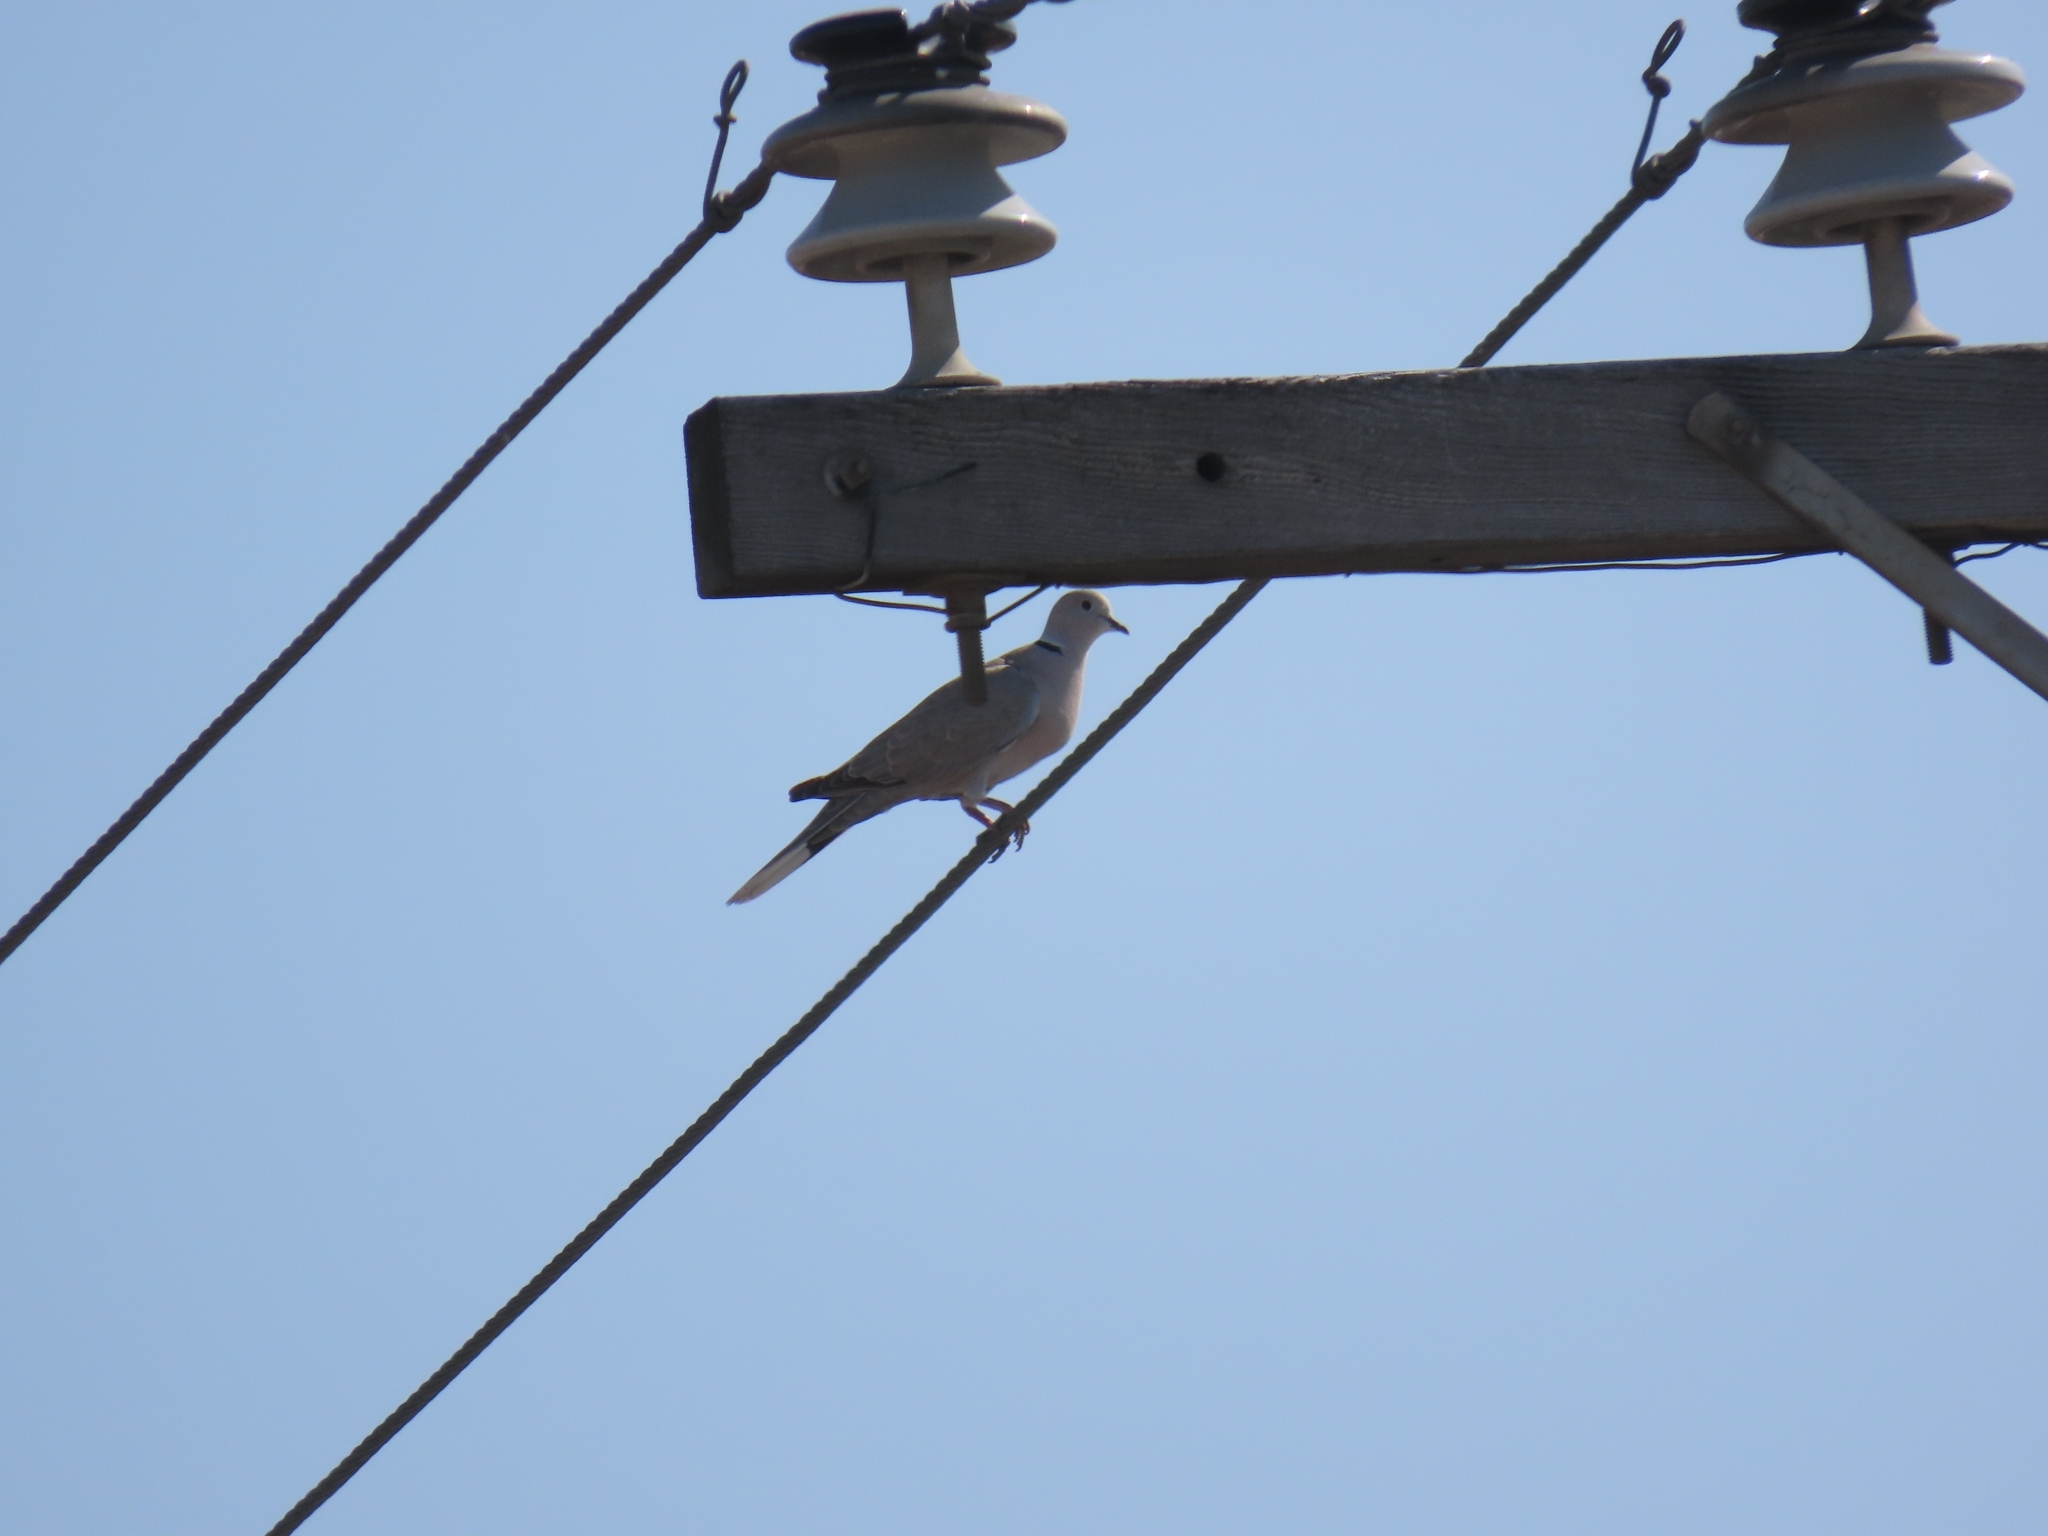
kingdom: Animalia
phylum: Chordata
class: Aves
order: Columbiformes
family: Columbidae
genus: Streptopelia
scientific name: Streptopelia decaocto
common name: Eurasian collared dove
